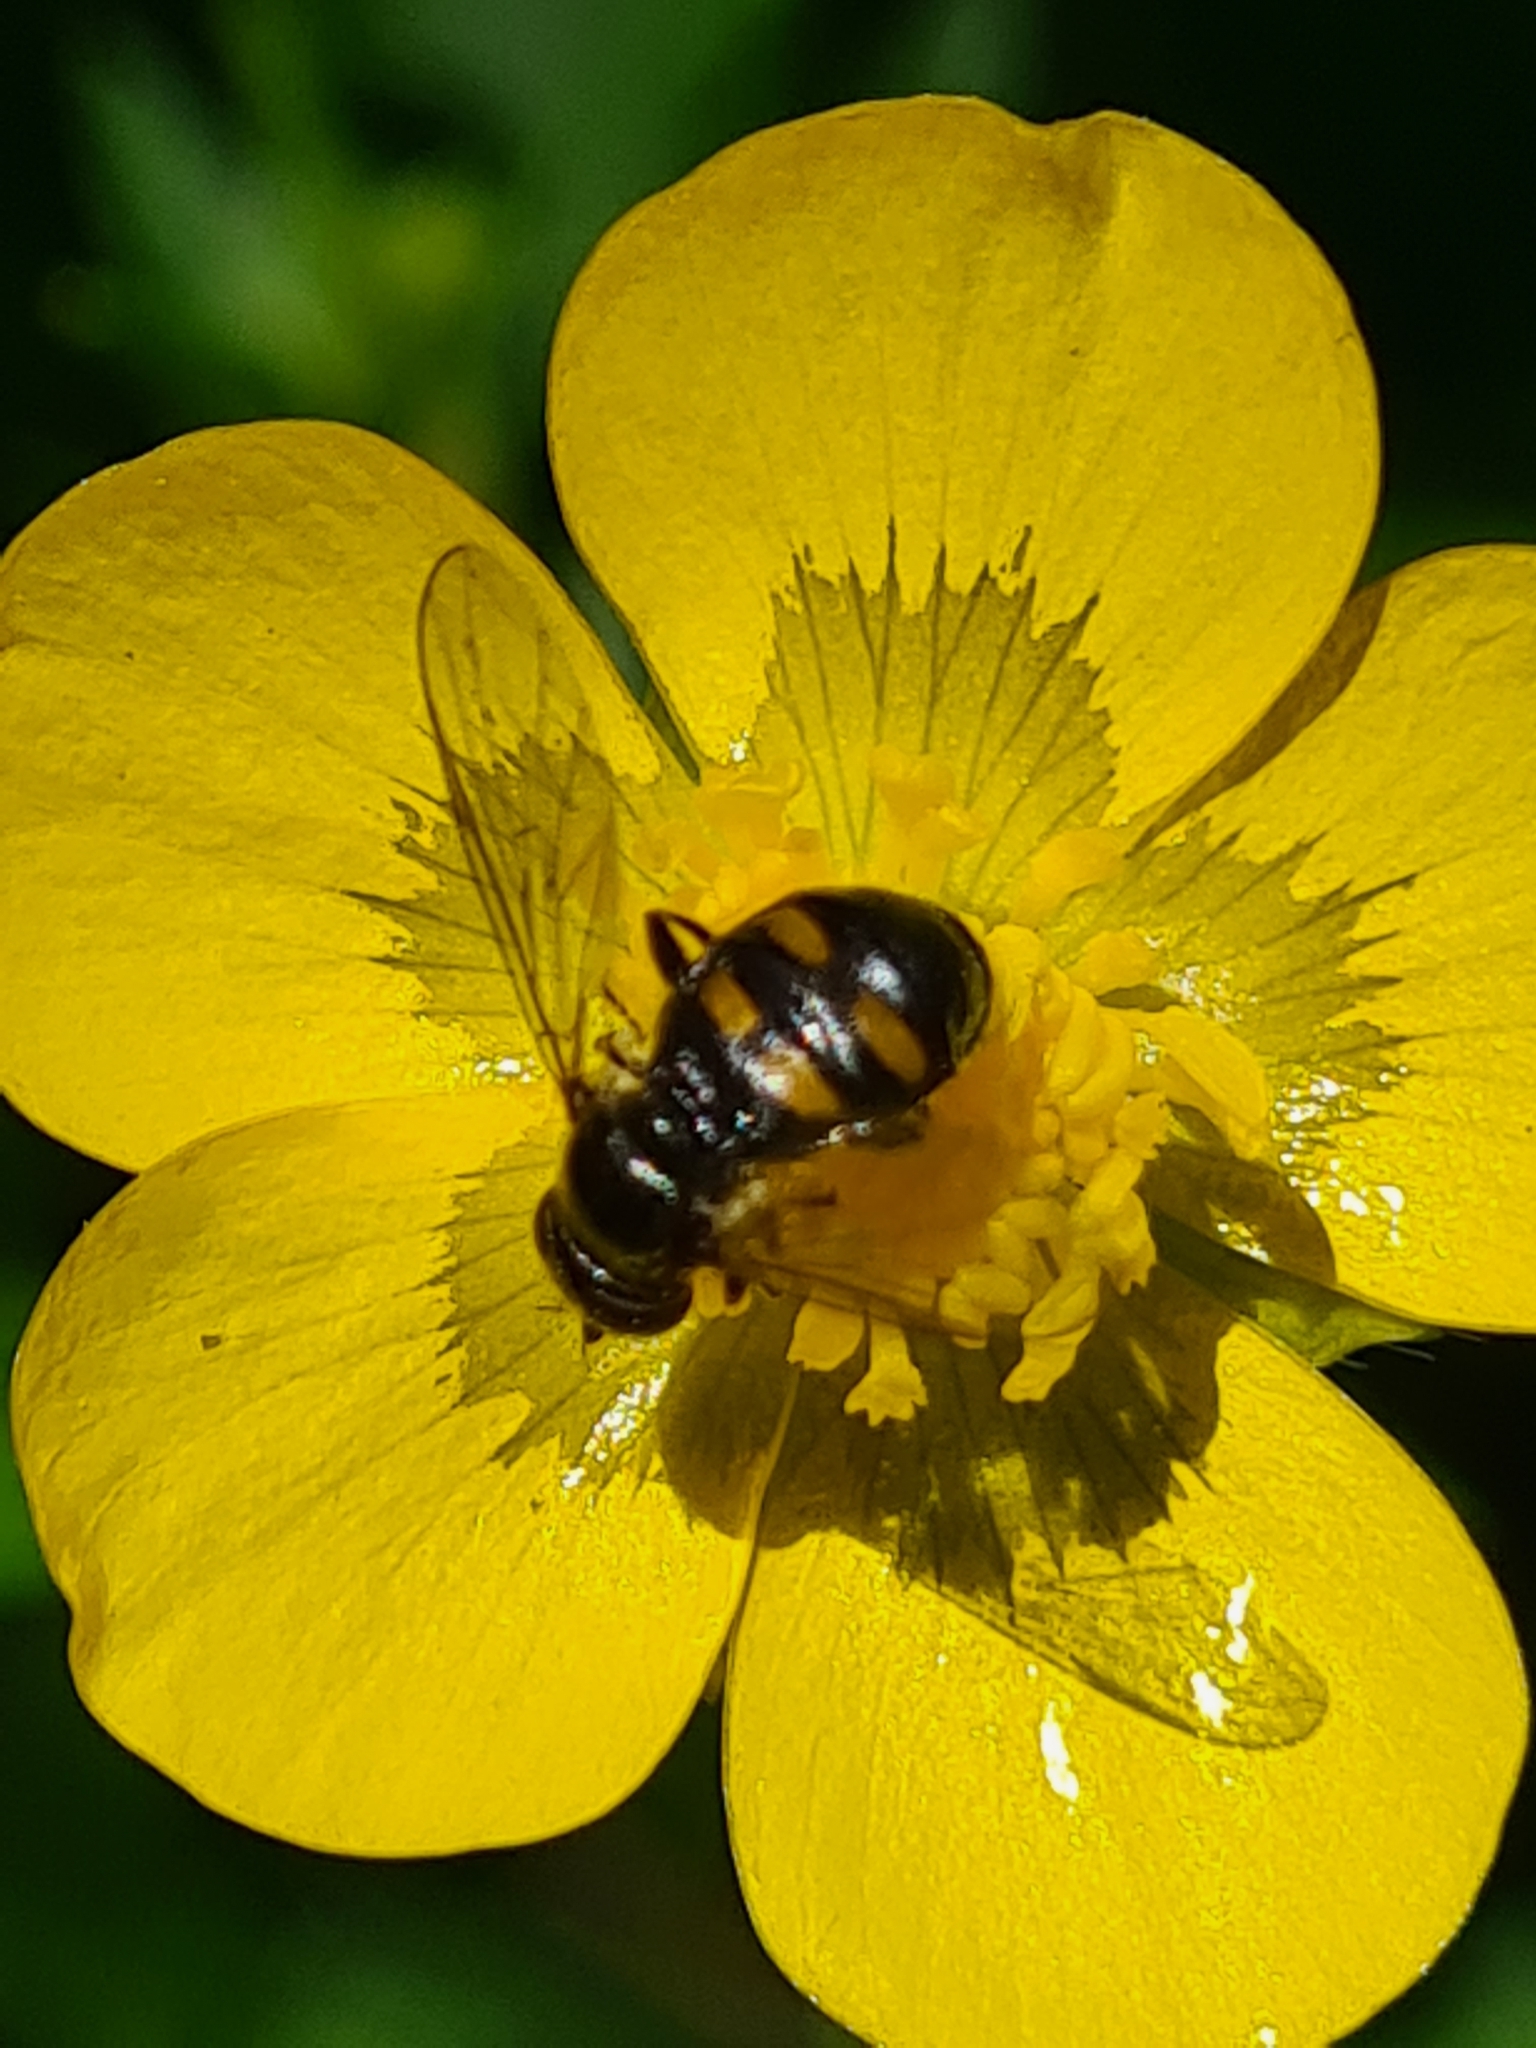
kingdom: Animalia
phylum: Arthropoda
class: Insecta
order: Diptera
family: Syrphidae
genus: Pipiza
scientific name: Pipiza quadrimaculata
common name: Four-spotted pipiza
